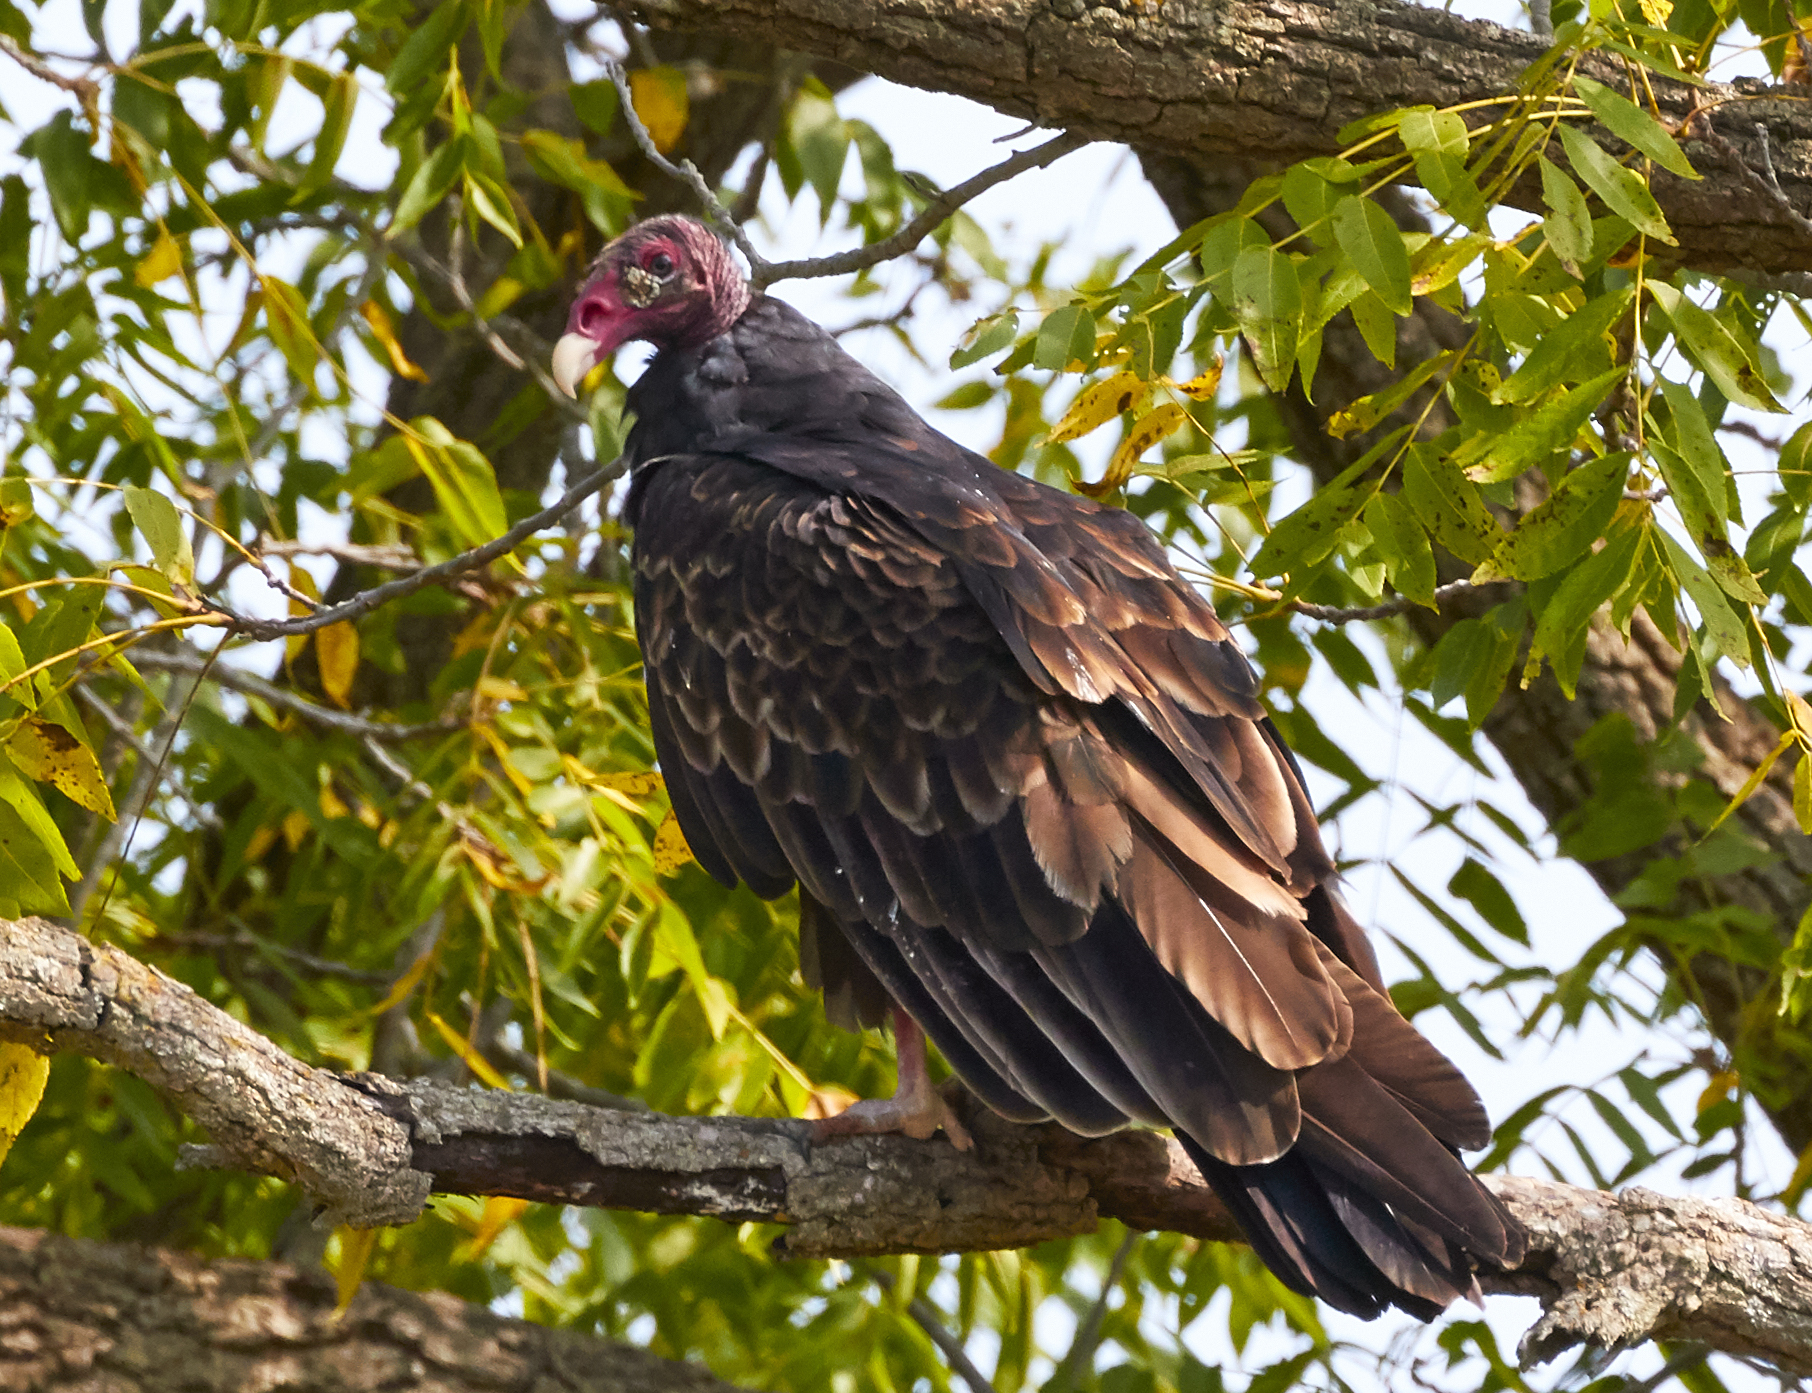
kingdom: Animalia
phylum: Chordata
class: Aves
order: Accipitriformes
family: Cathartidae
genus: Cathartes
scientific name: Cathartes aura
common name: Turkey vulture
